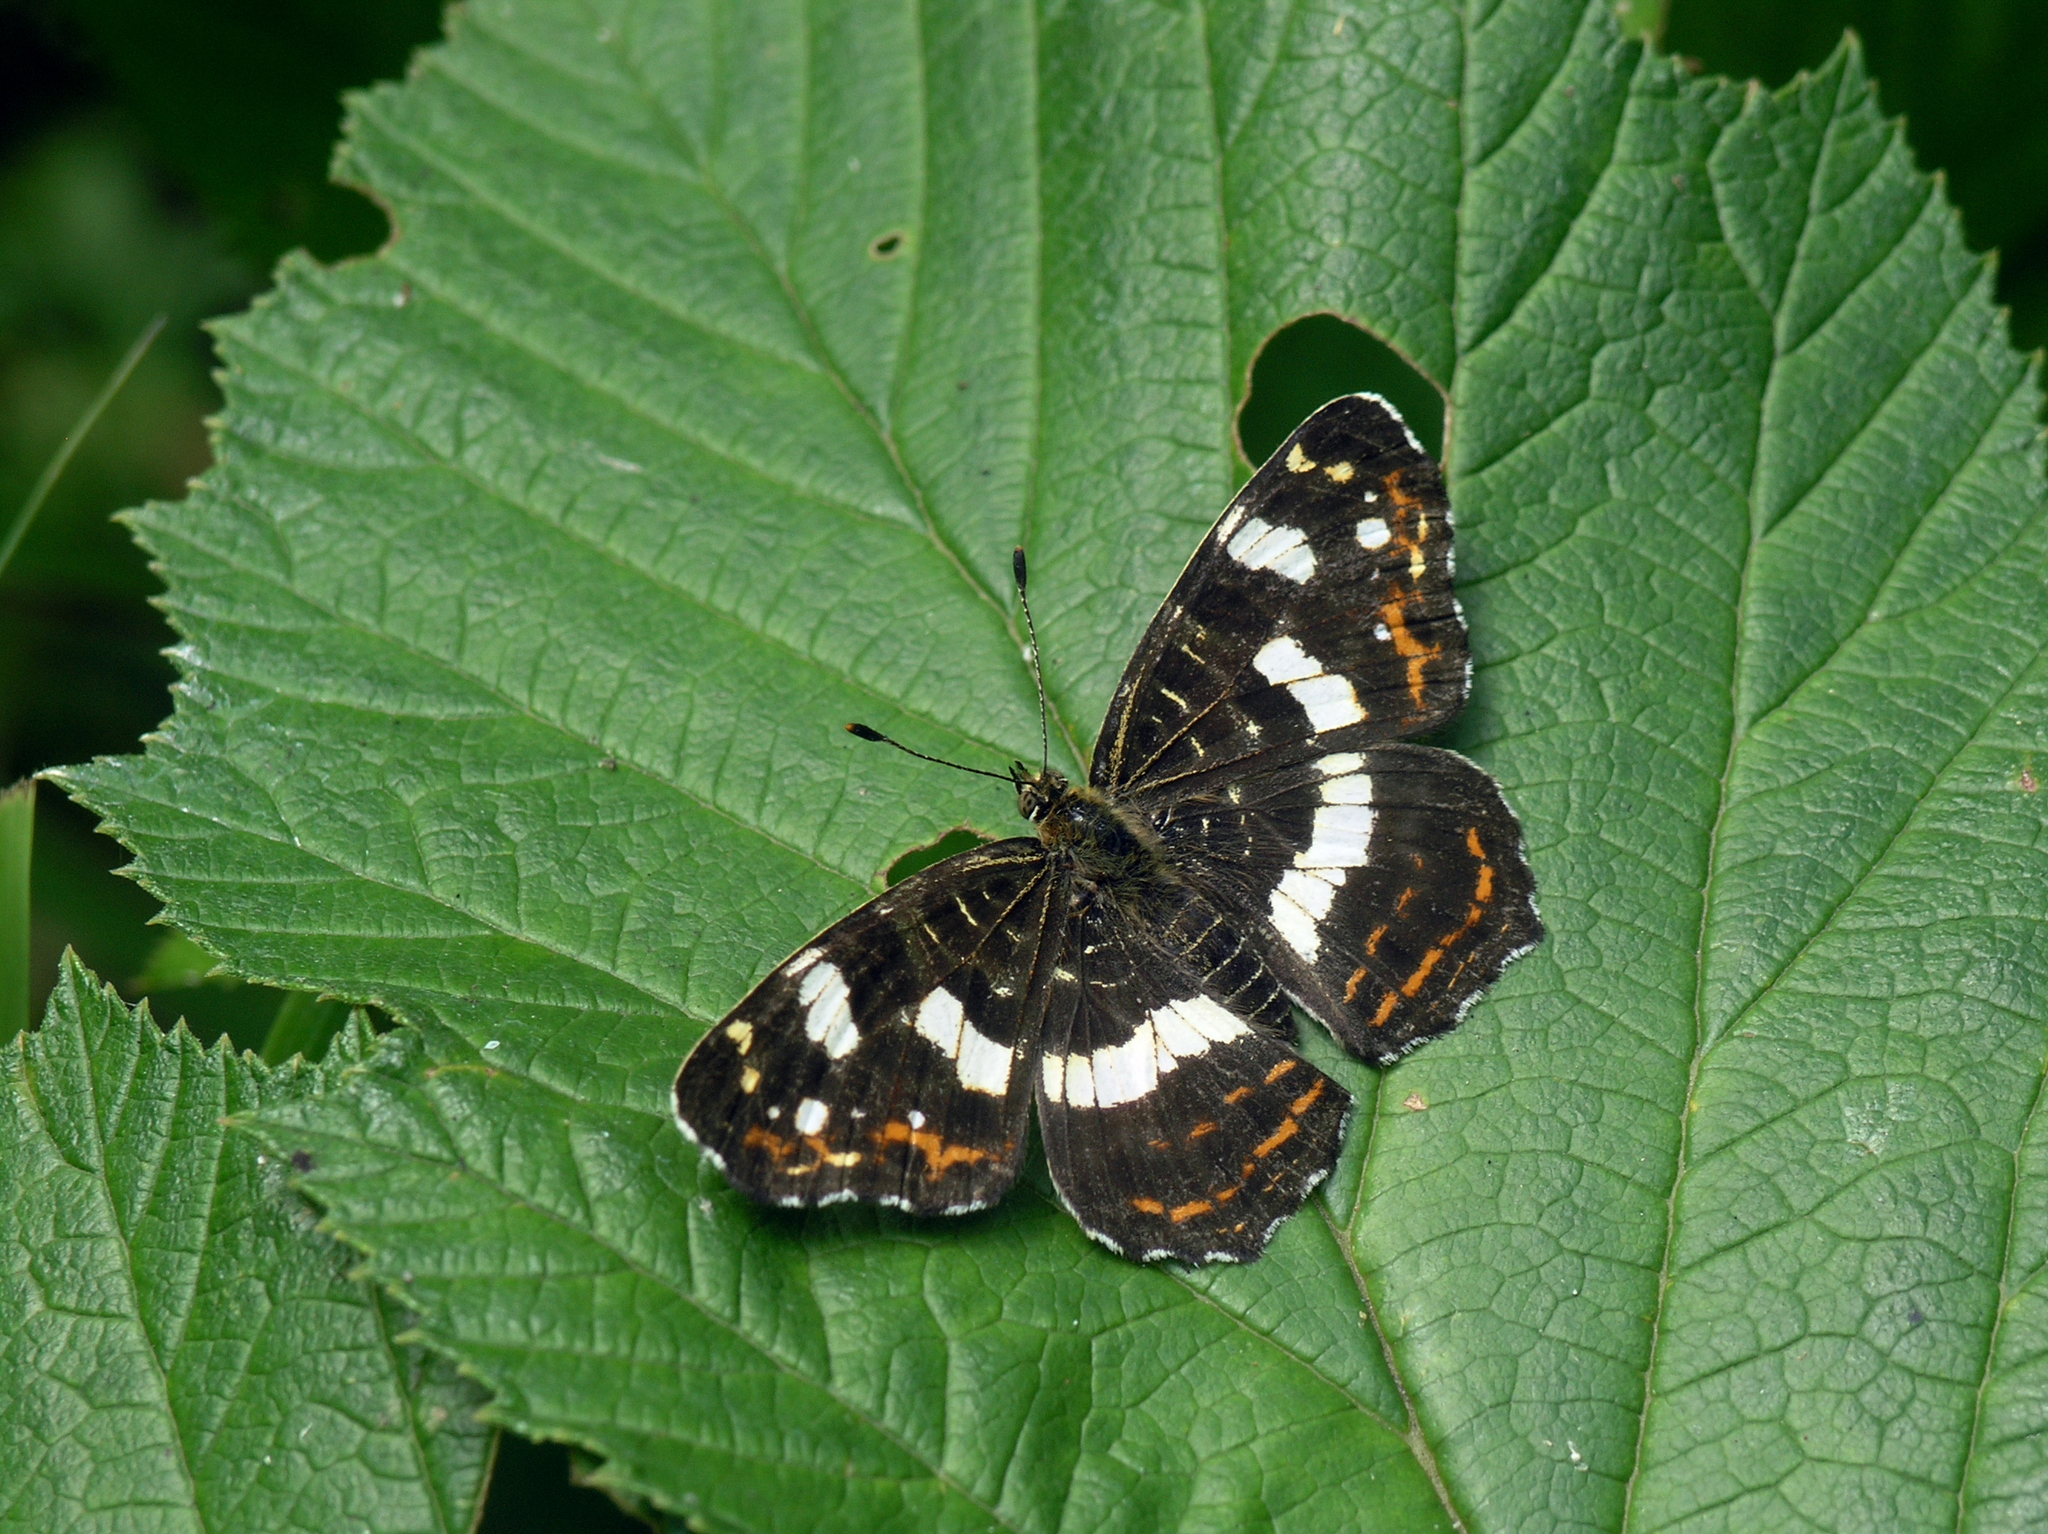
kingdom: Animalia
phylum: Arthropoda
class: Insecta
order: Lepidoptera
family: Nymphalidae
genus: Araschnia
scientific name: Araschnia levana
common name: Map butterfly
